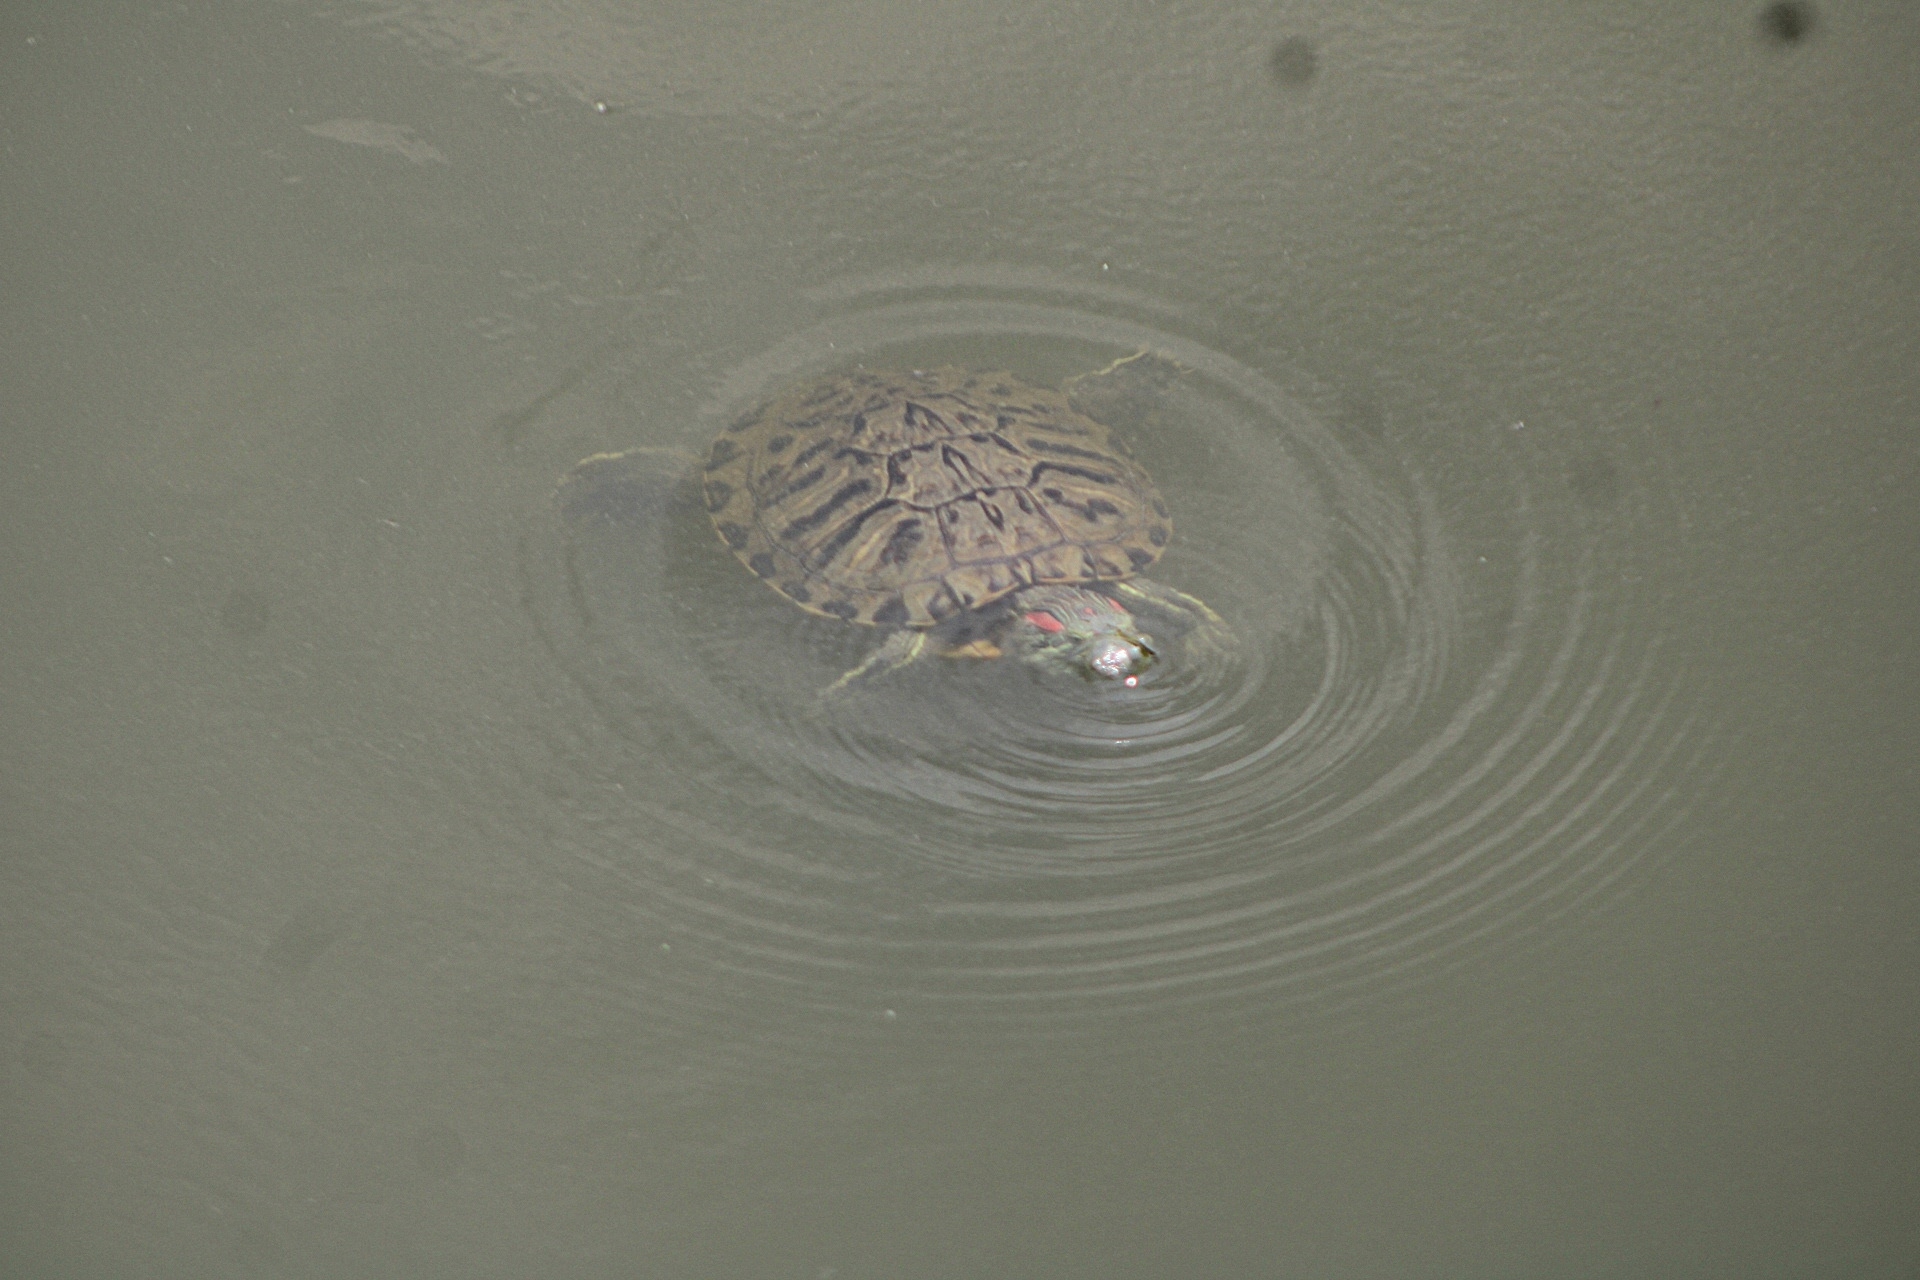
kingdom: Animalia
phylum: Chordata
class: Testudines
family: Emydidae
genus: Trachemys
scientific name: Trachemys scripta
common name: Slider
